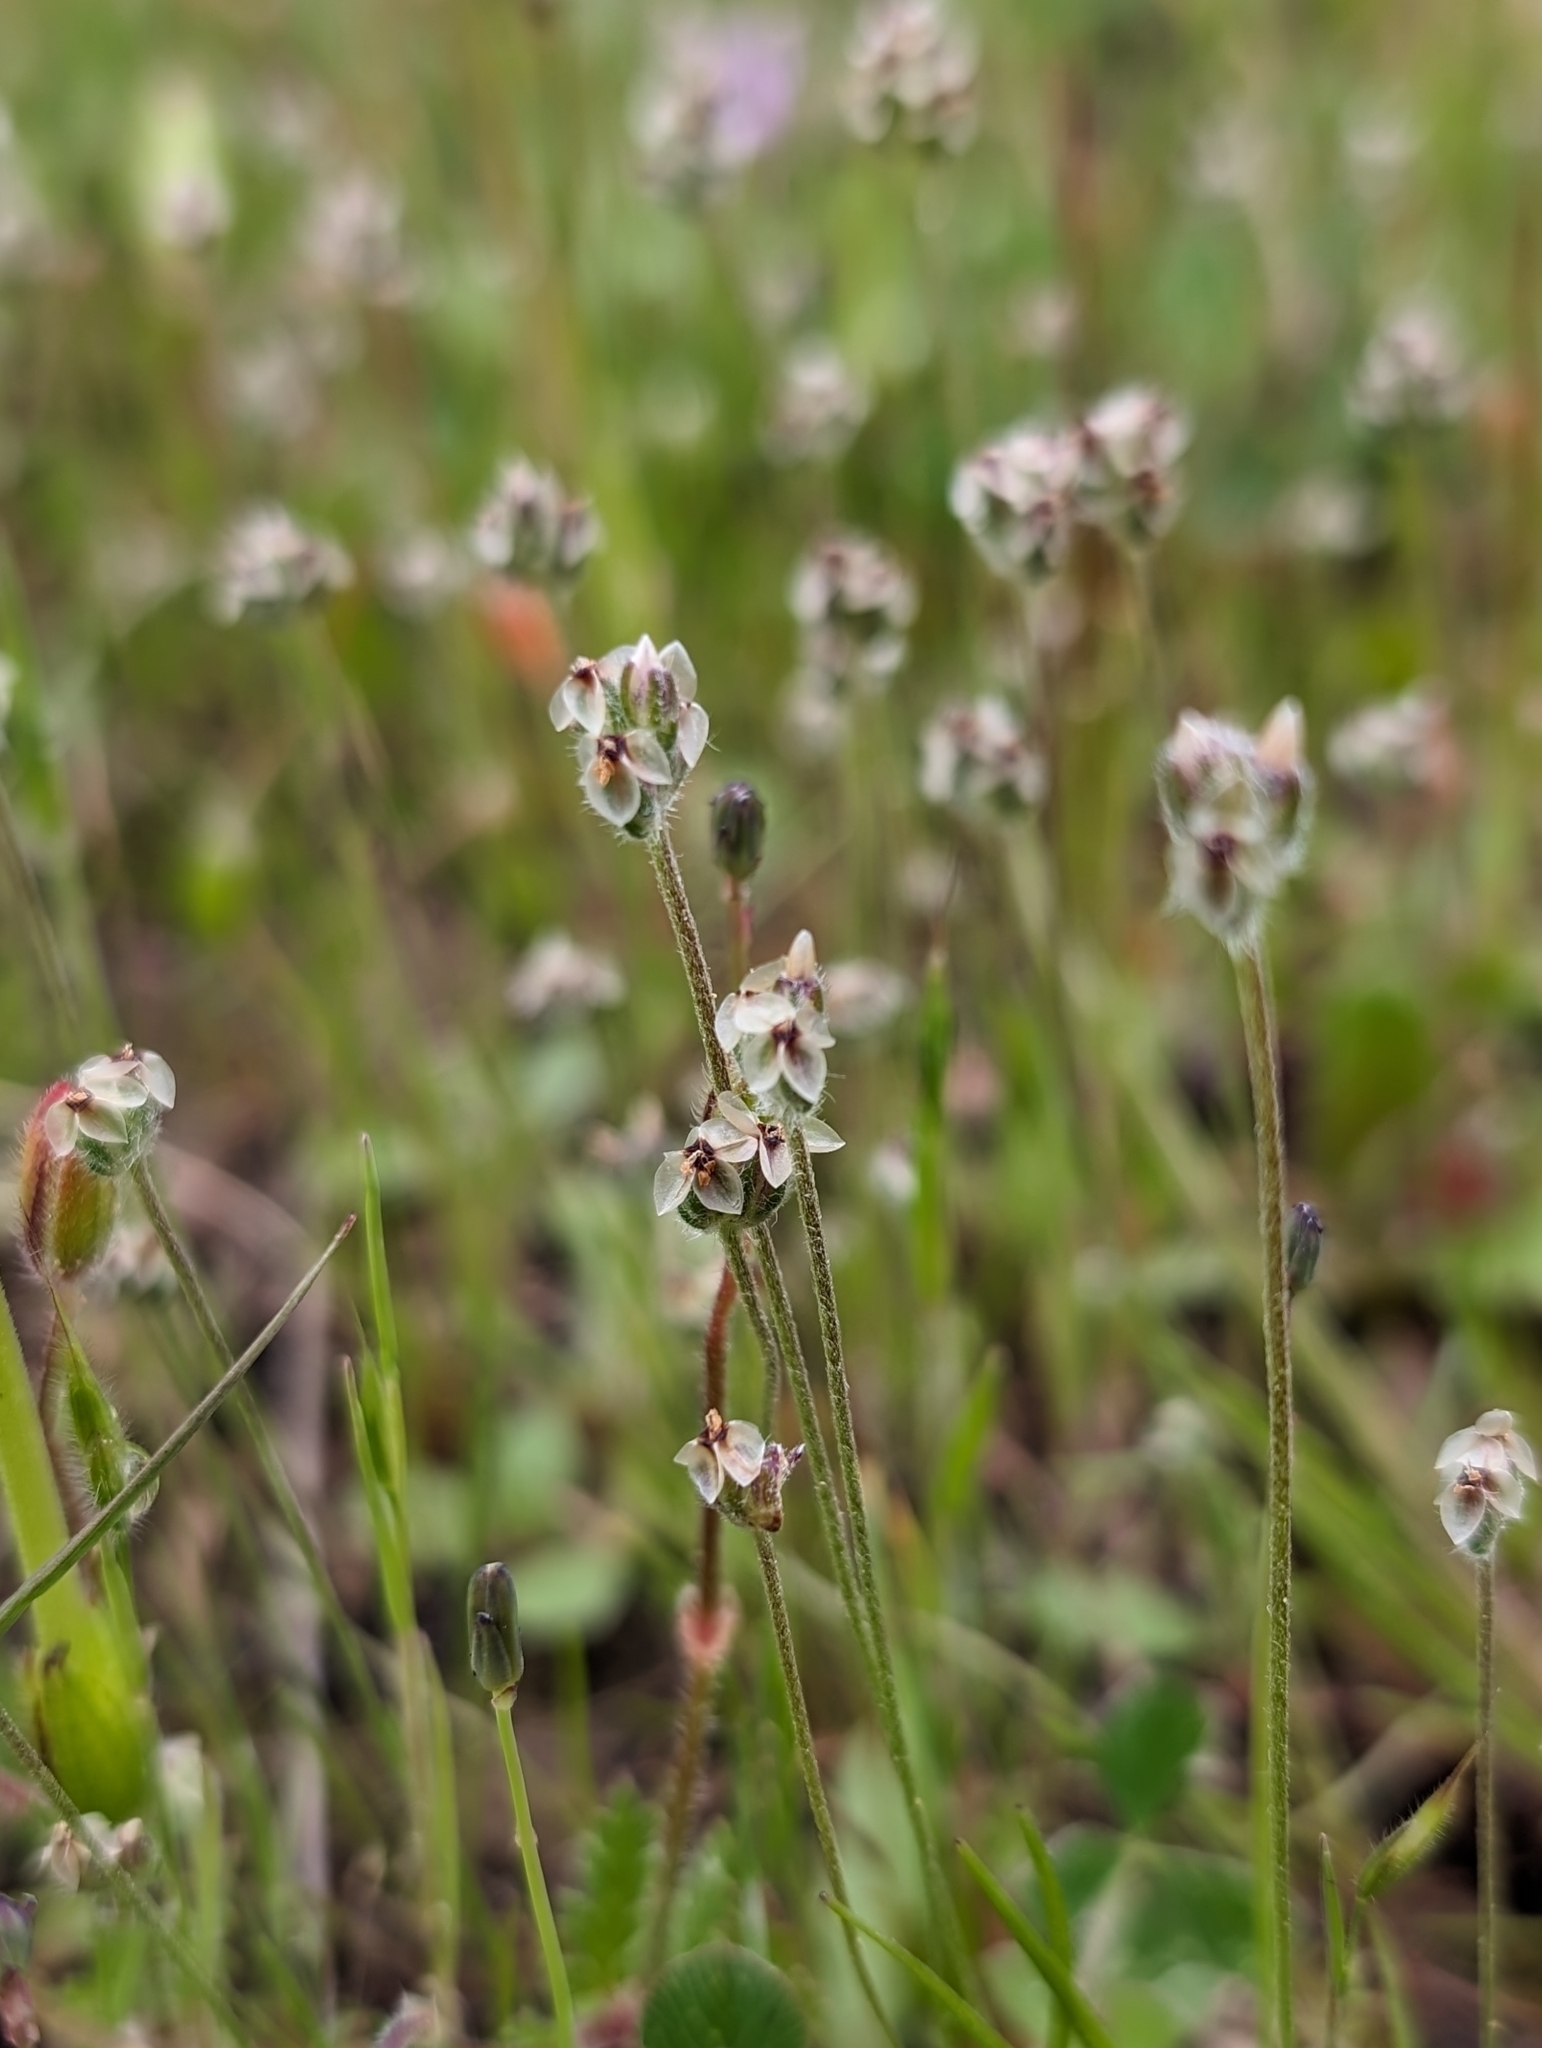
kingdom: Plantae
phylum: Tracheophyta
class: Magnoliopsida
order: Lamiales
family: Plantaginaceae
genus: Plantago
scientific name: Plantago erecta
